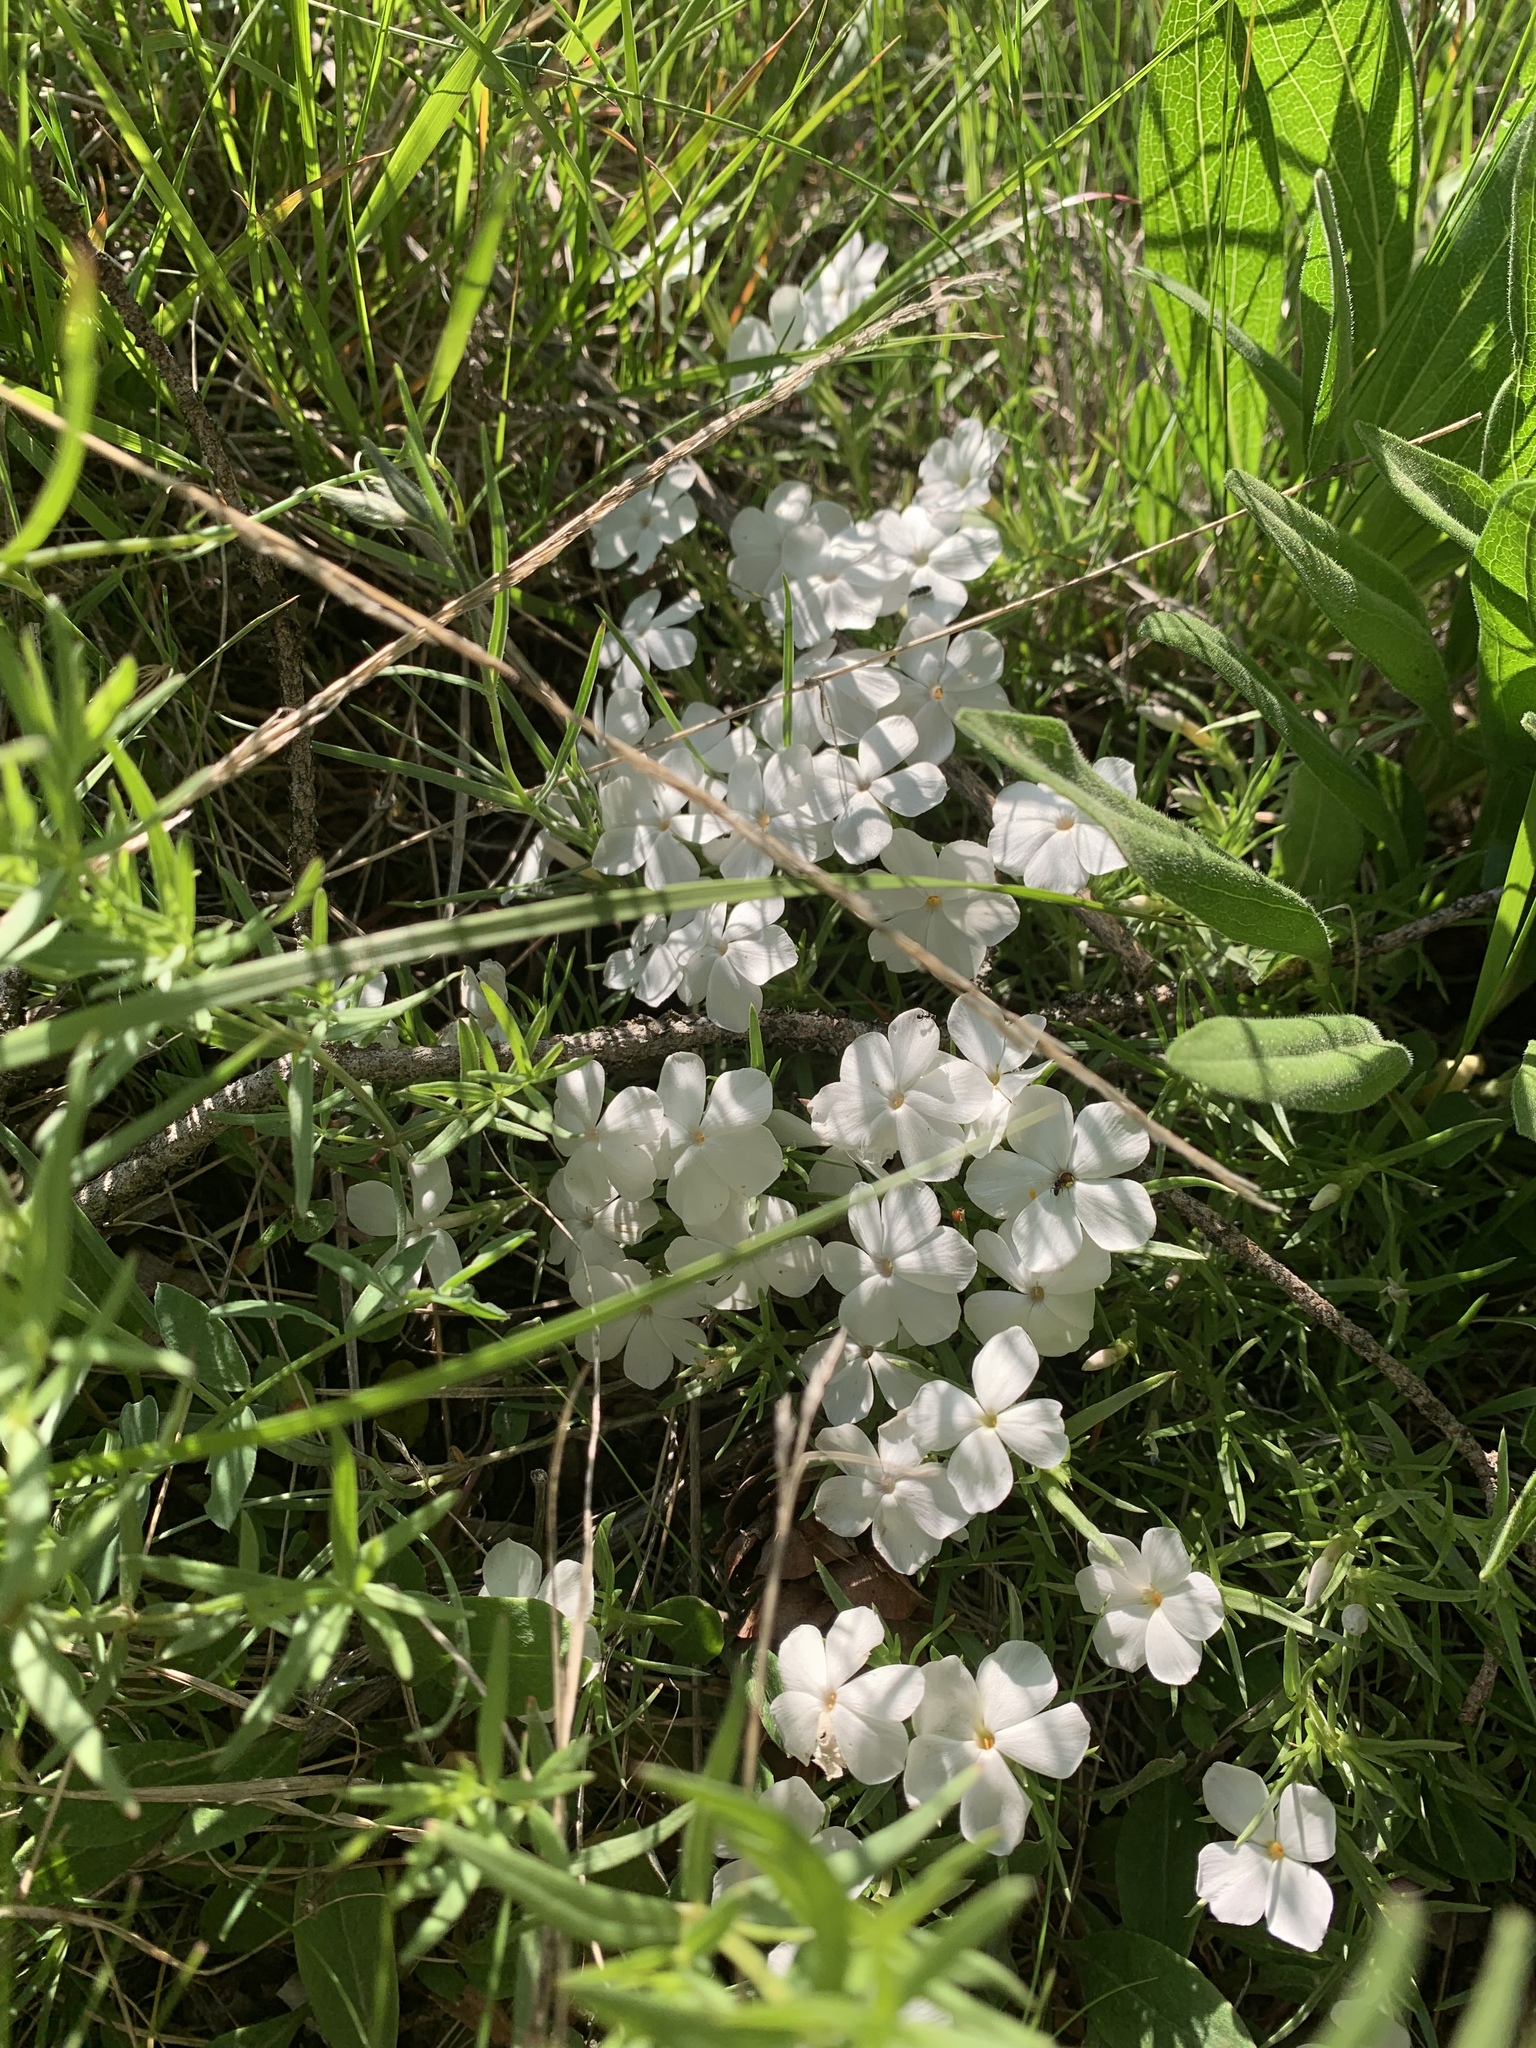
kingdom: Plantae
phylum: Tracheophyta
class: Magnoliopsida
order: Ericales
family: Polemoniaceae
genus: Phlox
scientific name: Phlox multiflora
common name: Rocky mountain phlox
